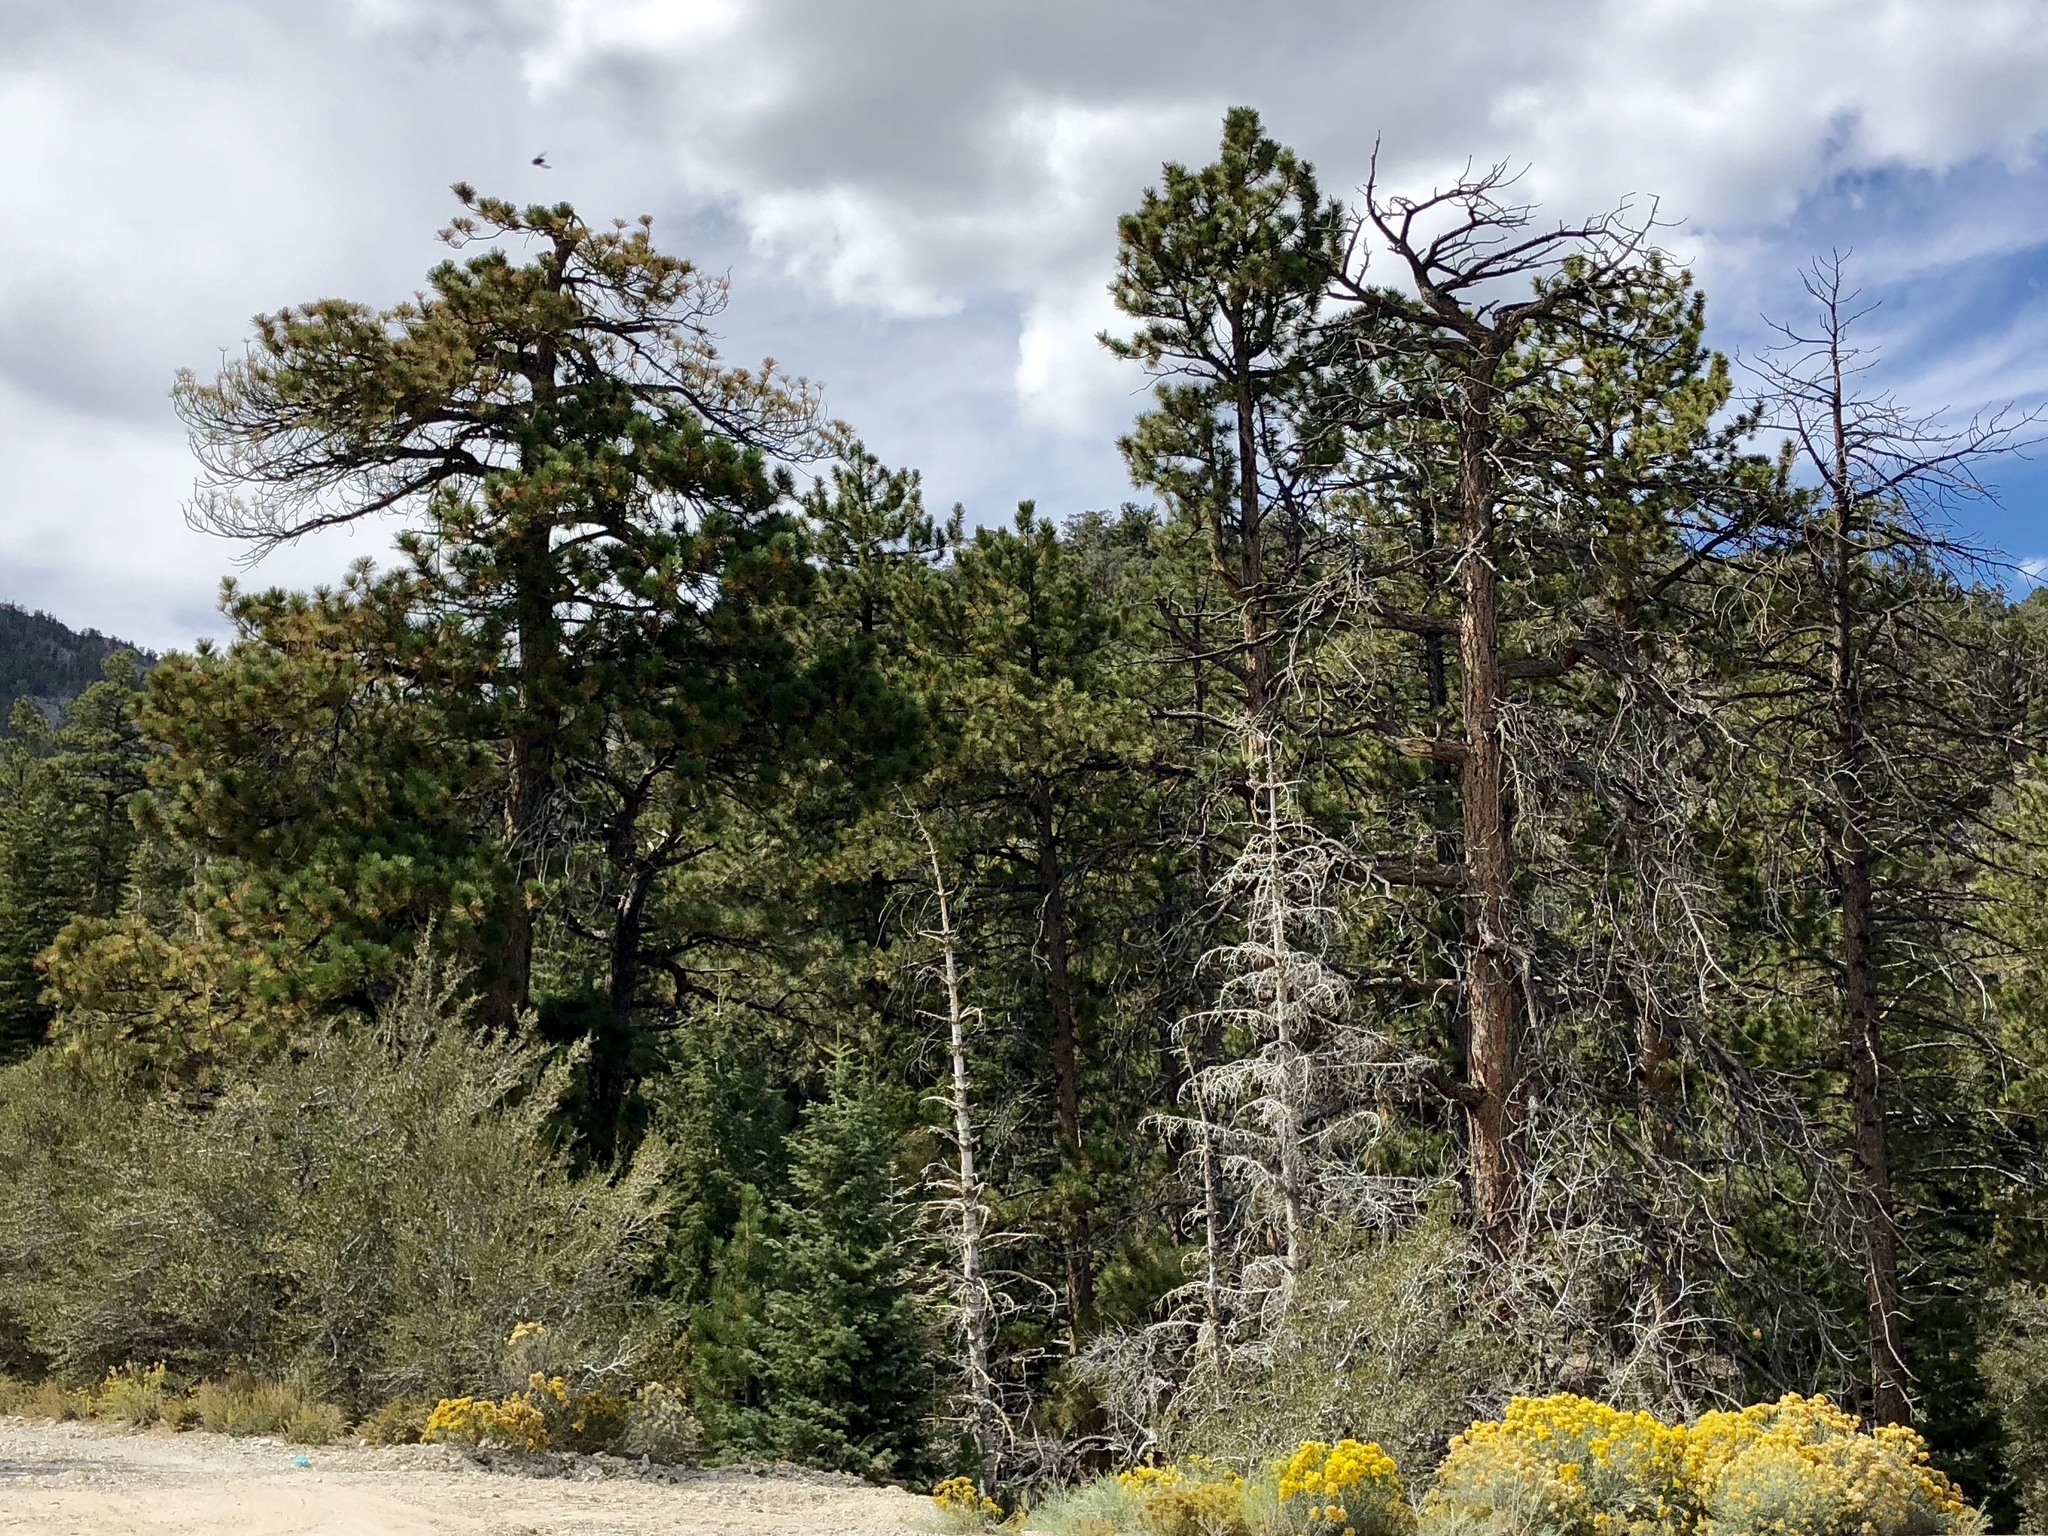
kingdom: Plantae
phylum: Tracheophyta
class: Pinopsida
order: Pinales
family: Pinaceae
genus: Pinus
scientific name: Pinus ponderosa
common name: Western yellow-pine
